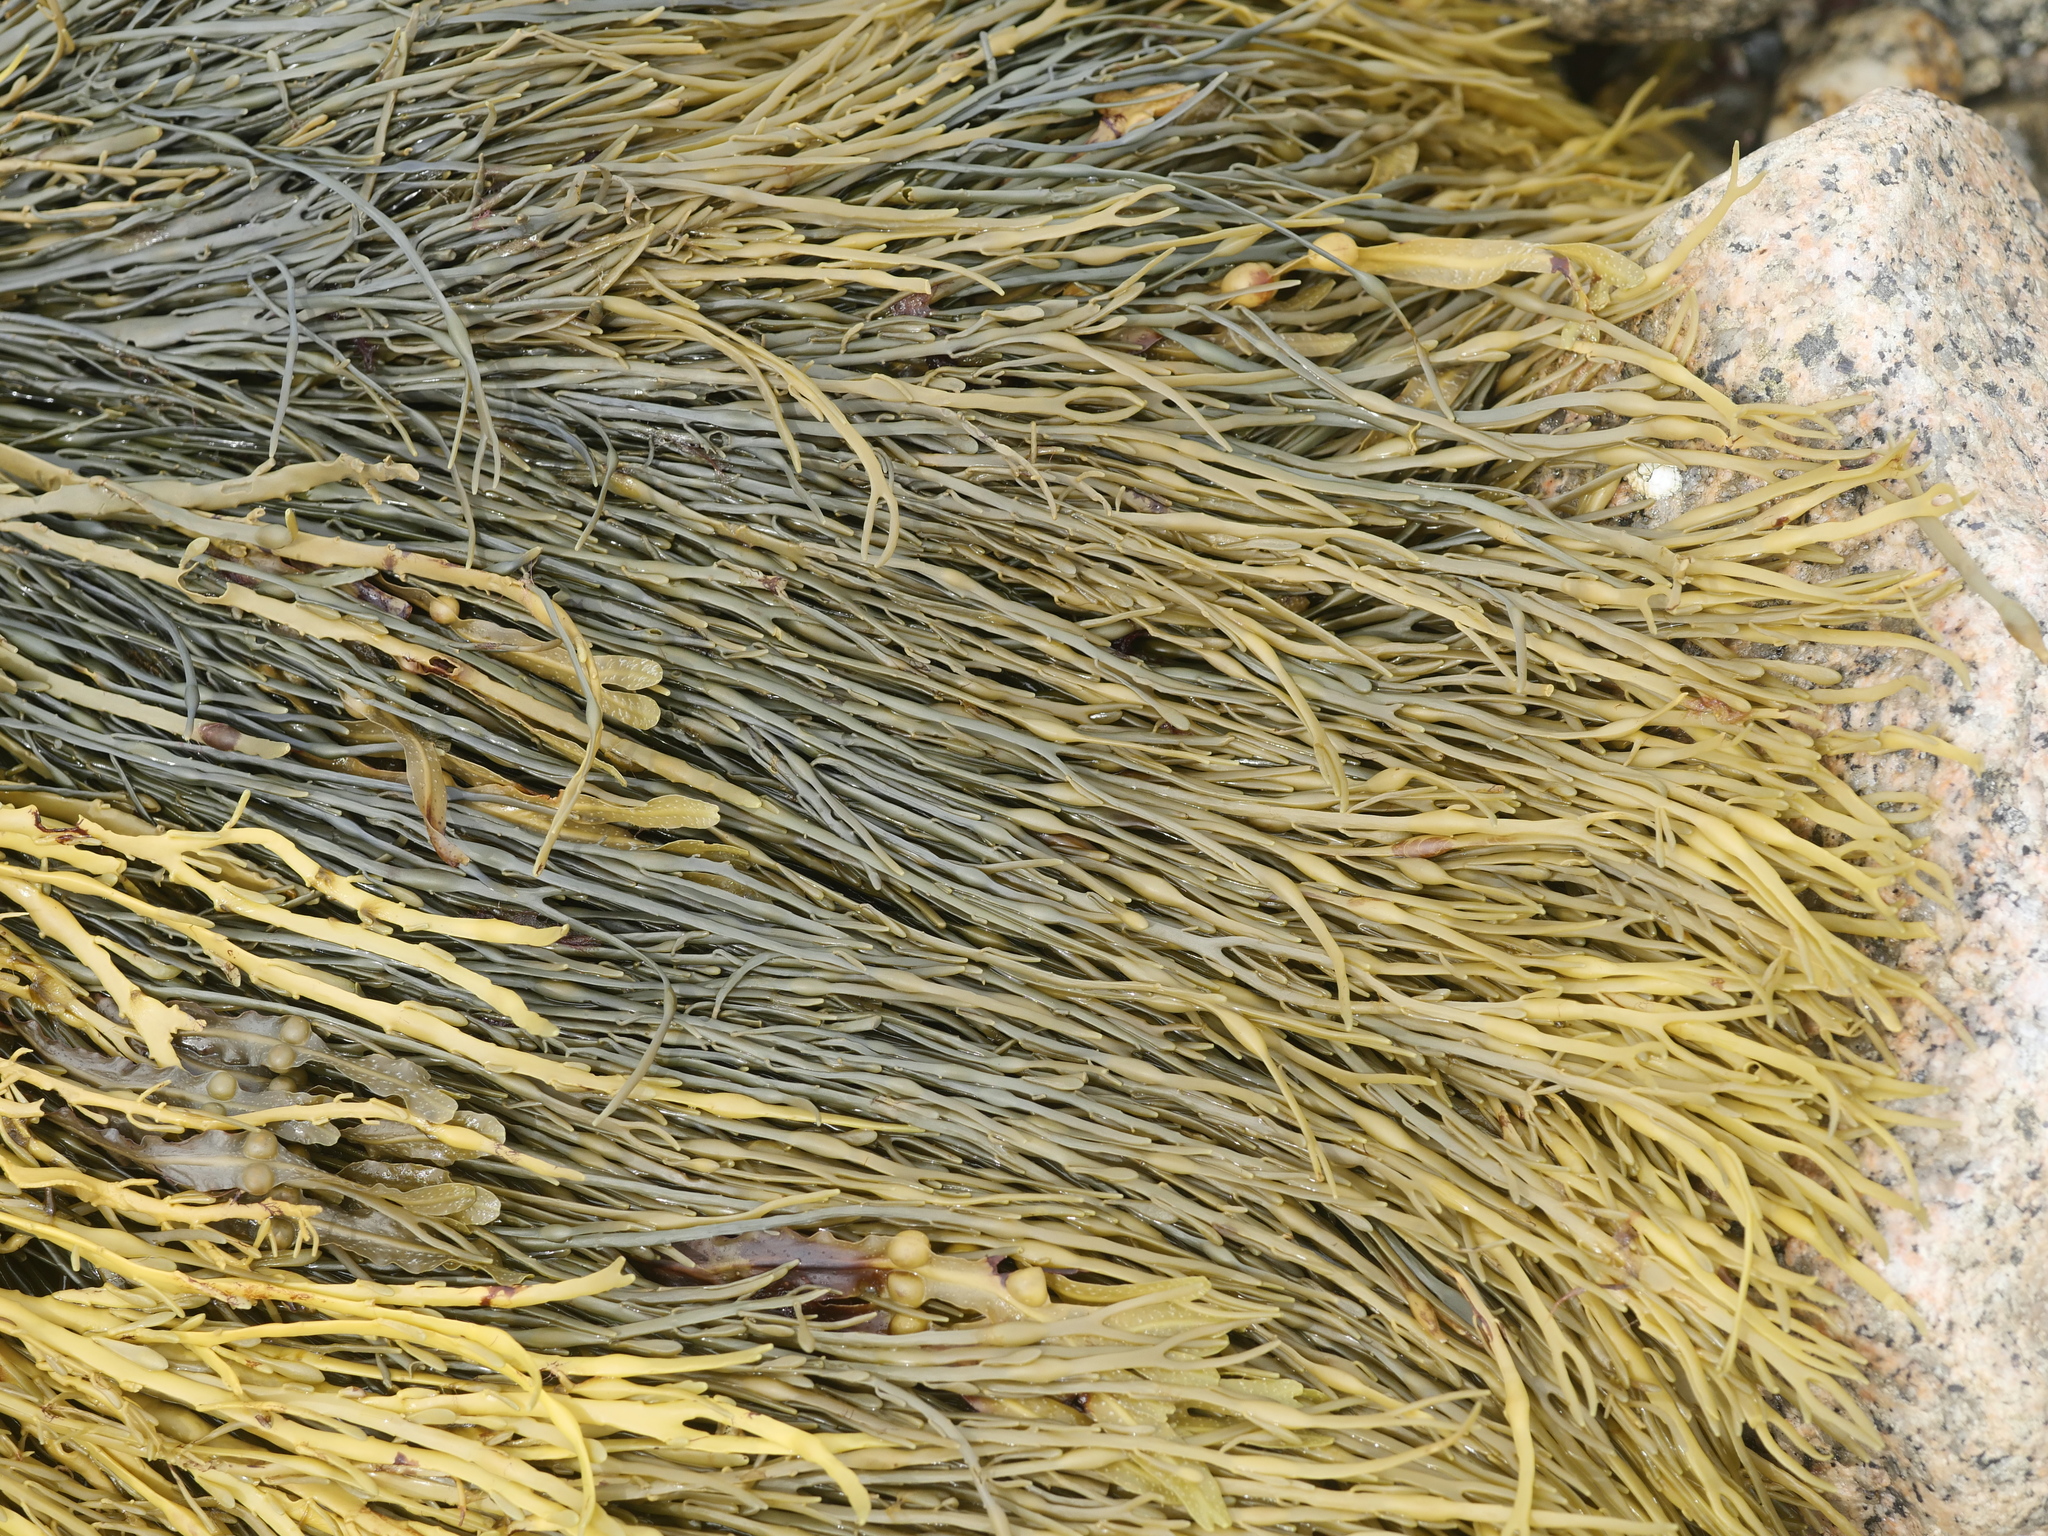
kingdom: Chromista
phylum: Ochrophyta
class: Phaeophyceae
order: Fucales
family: Fucaceae
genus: Ascophyllum
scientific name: Ascophyllum nodosum
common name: Knotted wrack
